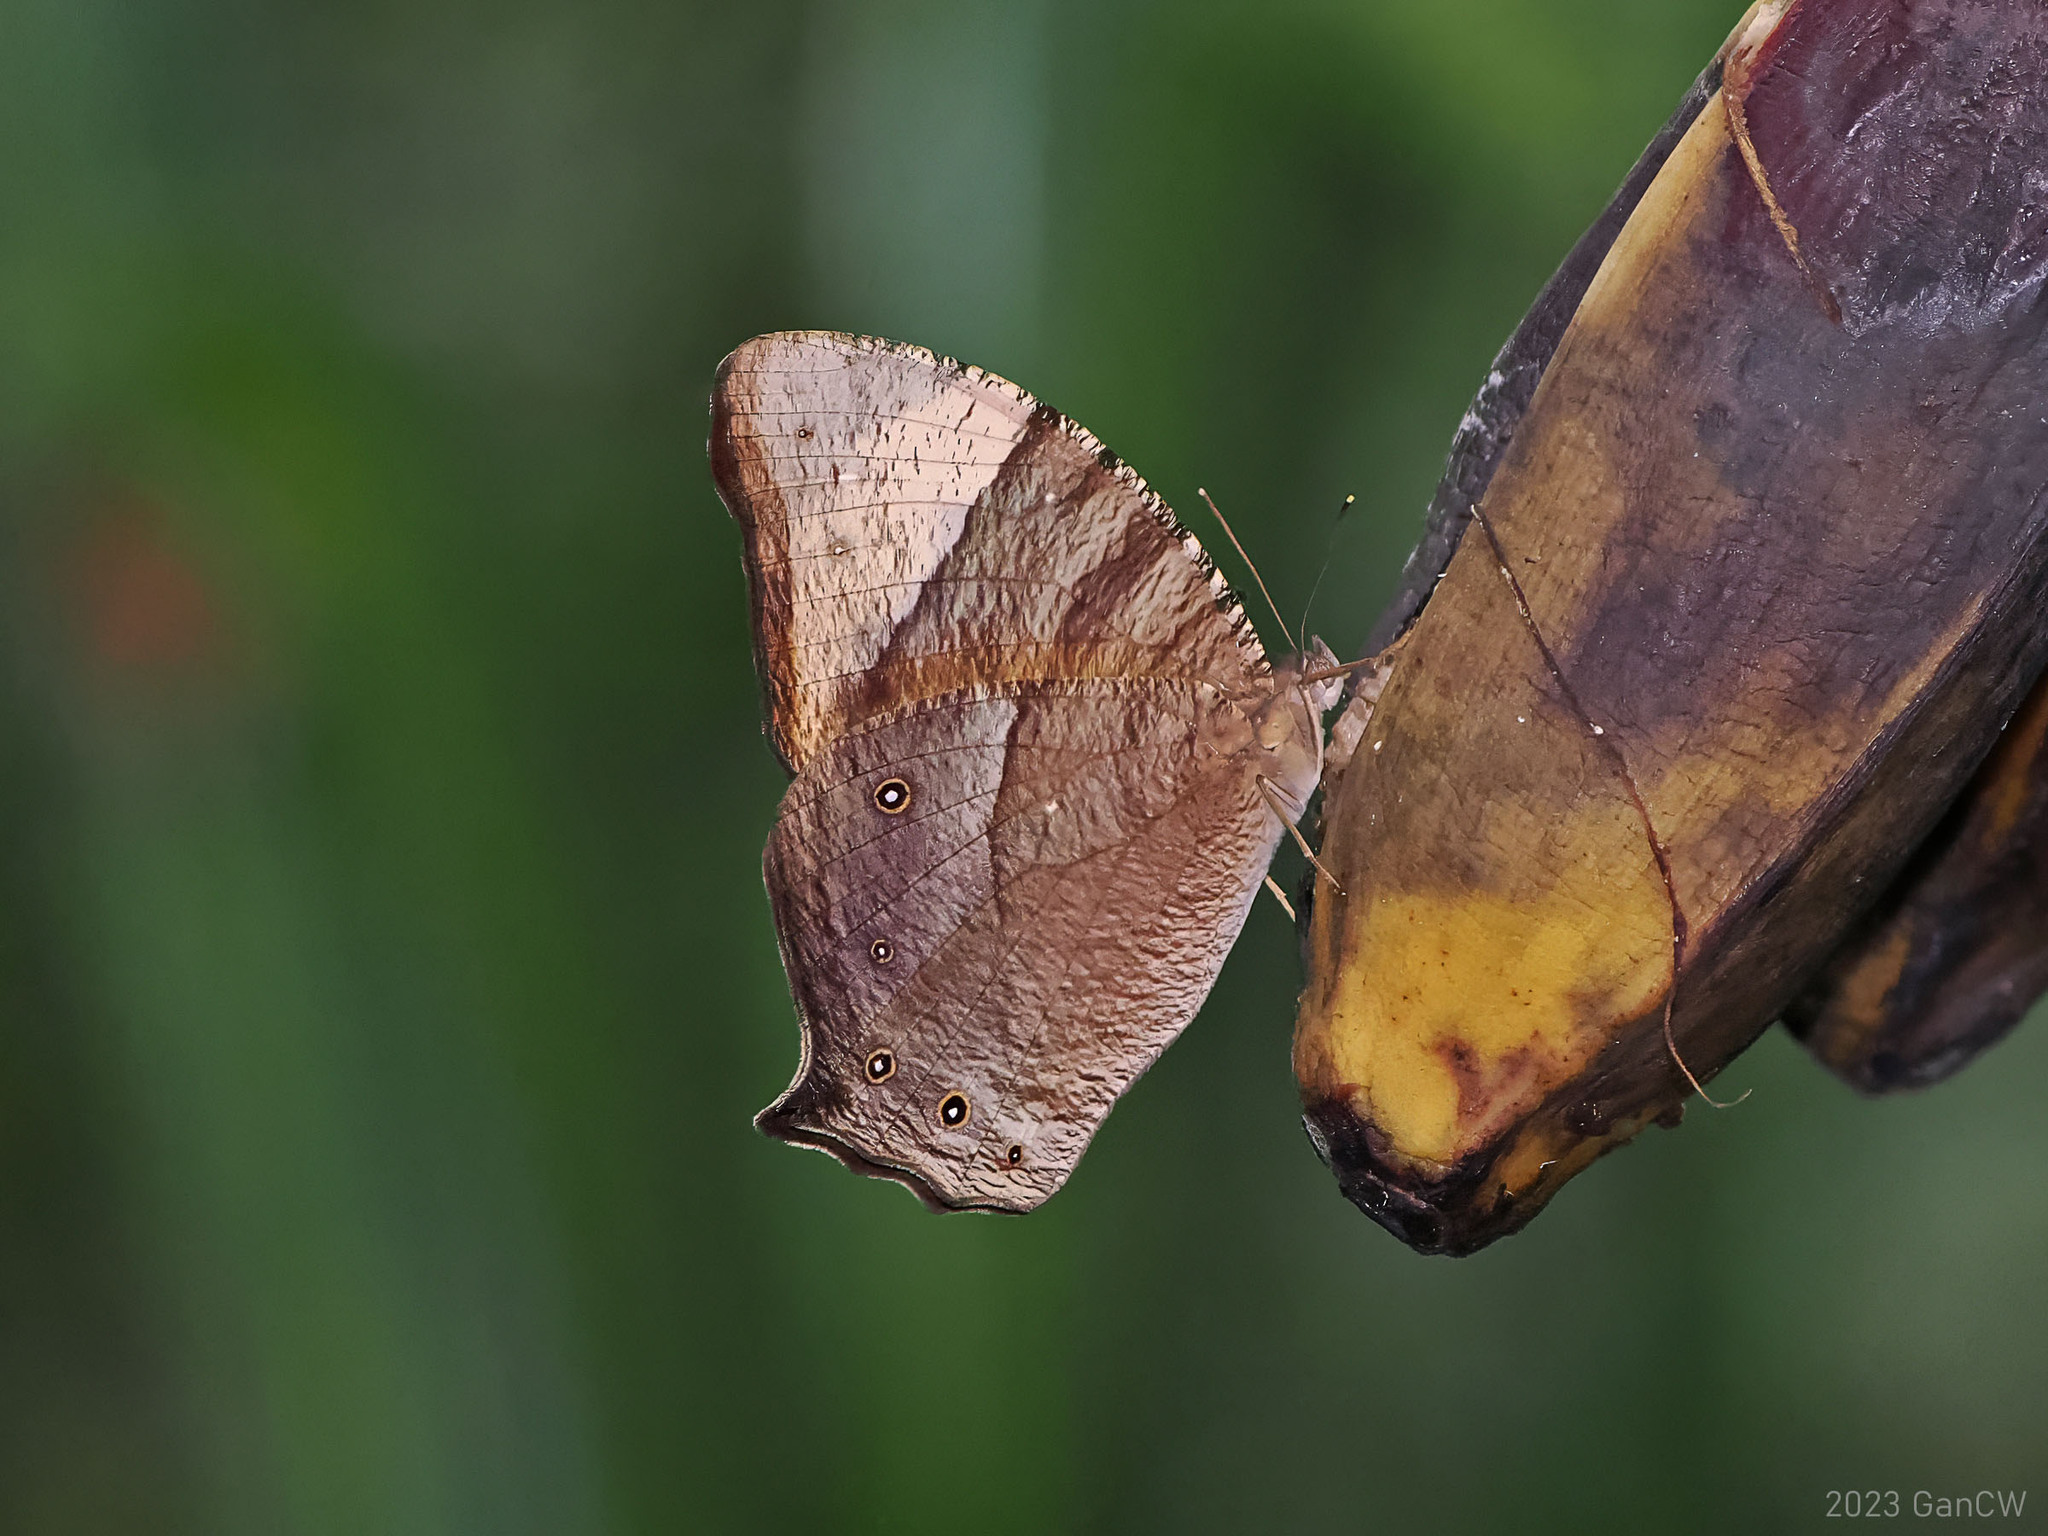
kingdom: Animalia
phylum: Arthropoda
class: Insecta
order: Lepidoptera
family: Nymphalidae
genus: Melanitis
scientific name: Melanitis constantia
